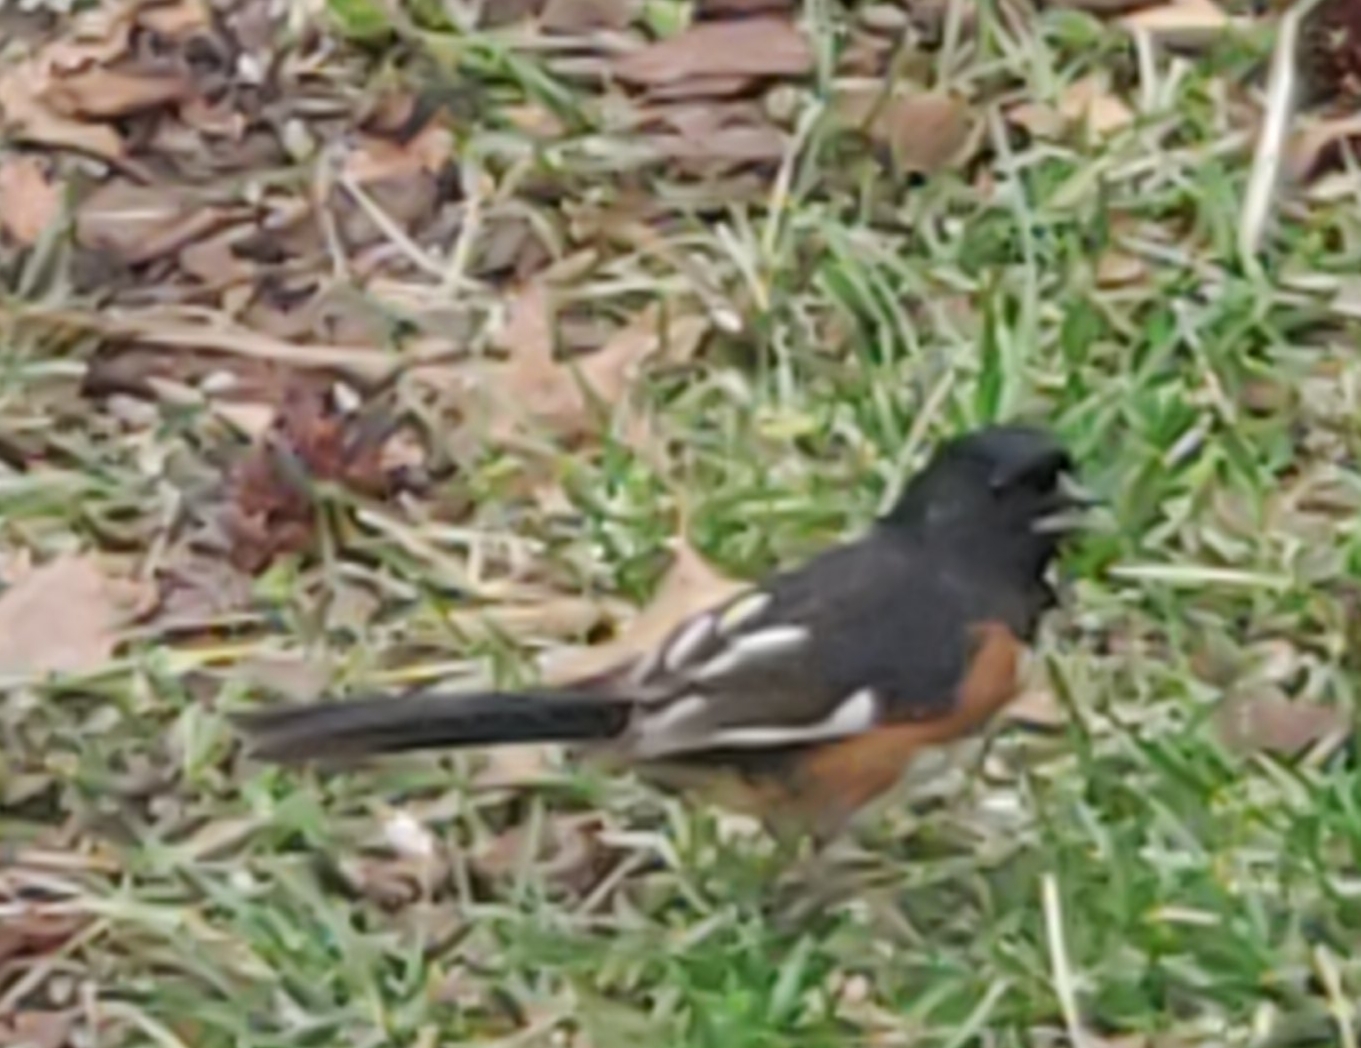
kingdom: Animalia
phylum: Chordata
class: Aves
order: Passeriformes
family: Passerellidae
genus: Pipilo
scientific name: Pipilo erythrophthalmus
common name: Eastern towhee
